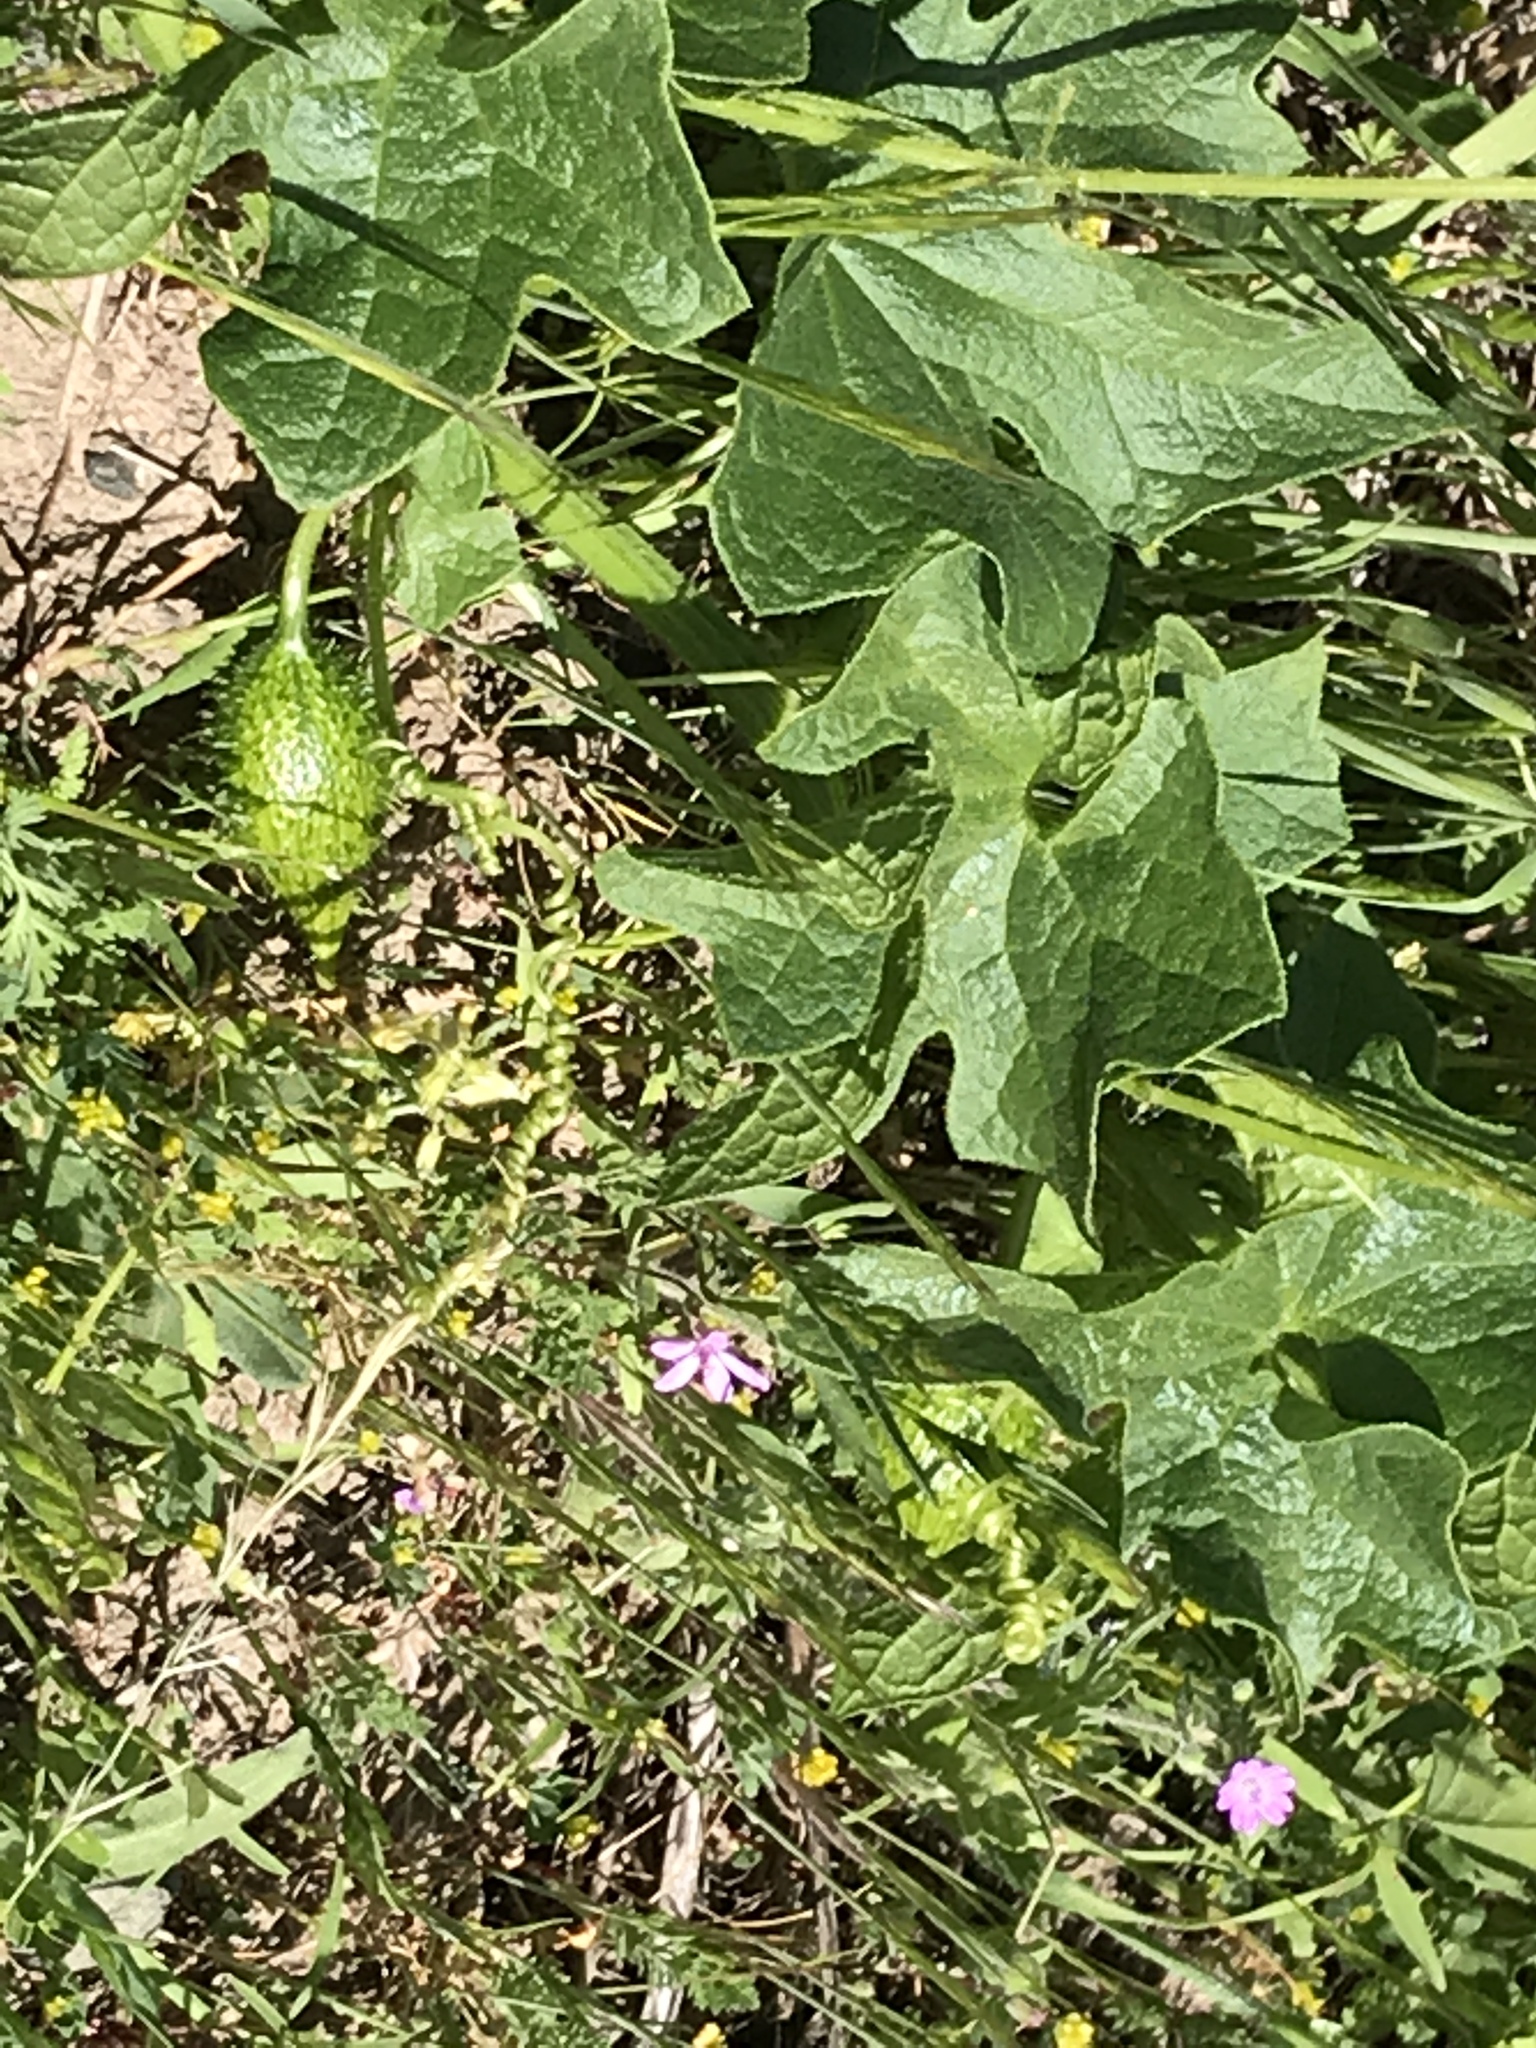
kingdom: Plantae
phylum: Tracheophyta
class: Magnoliopsida
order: Cucurbitales
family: Cucurbitaceae
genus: Marah
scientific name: Marah oregana
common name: Coastal manroot
